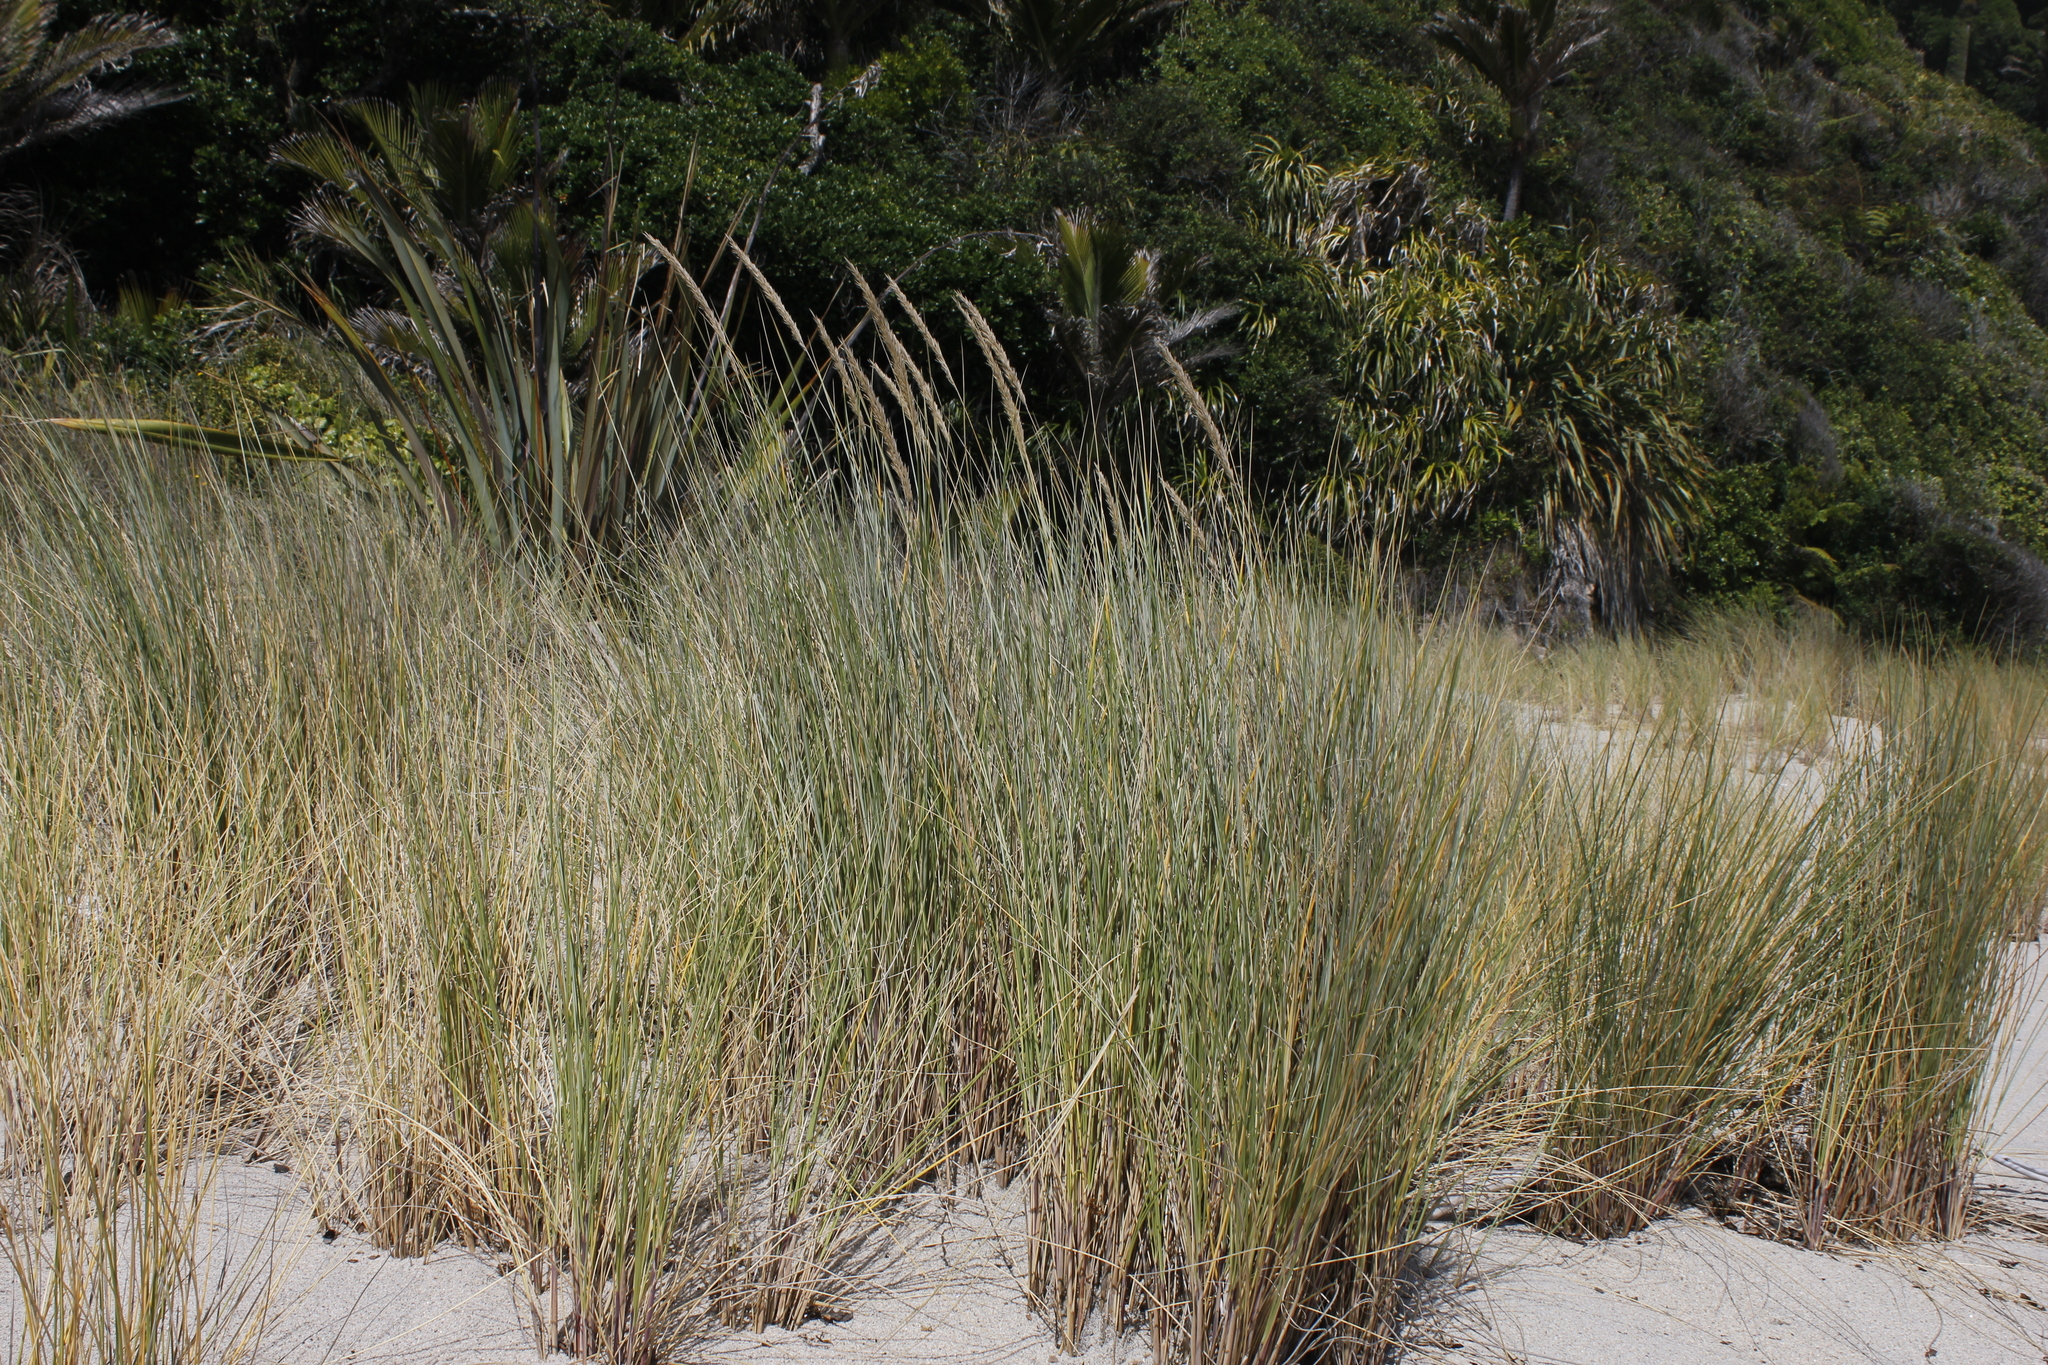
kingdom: Plantae
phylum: Tracheophyta
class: Liliopsida
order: Poales
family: Poaceae
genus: Calamagrostis
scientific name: Calamagrostis arenaria
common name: European beachgrass
